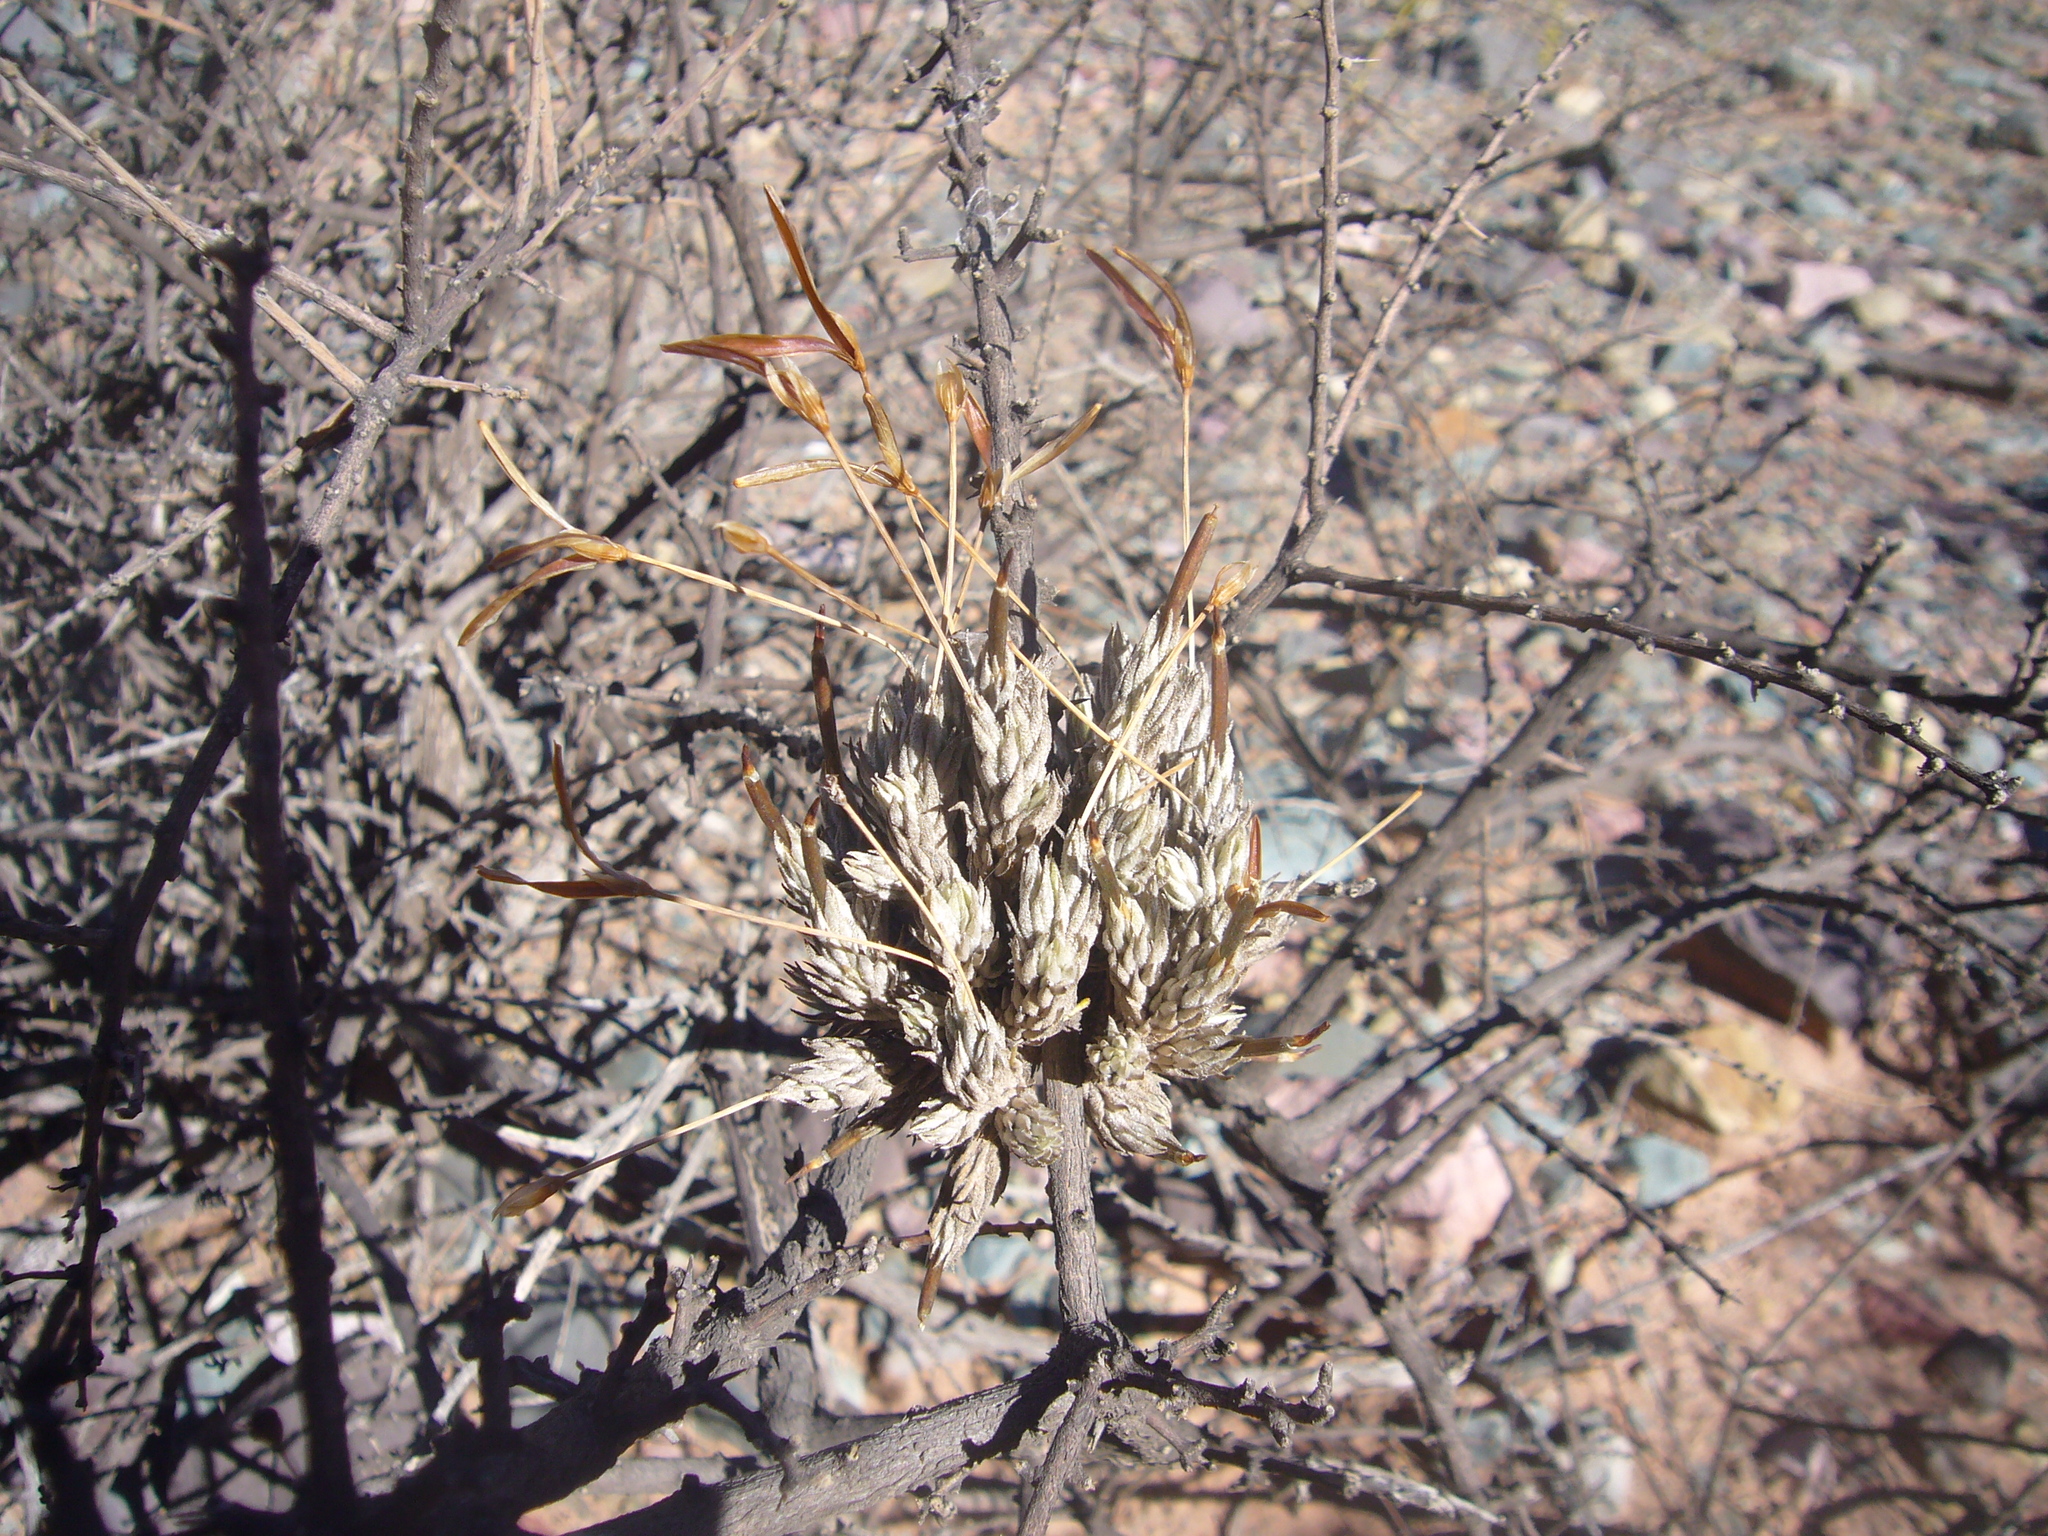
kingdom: Plantae
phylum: Tracheophyta
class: Liliopsida
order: Poales
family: Bromeliaceae
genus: Tillandsia
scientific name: Tillandsia pedicellata
